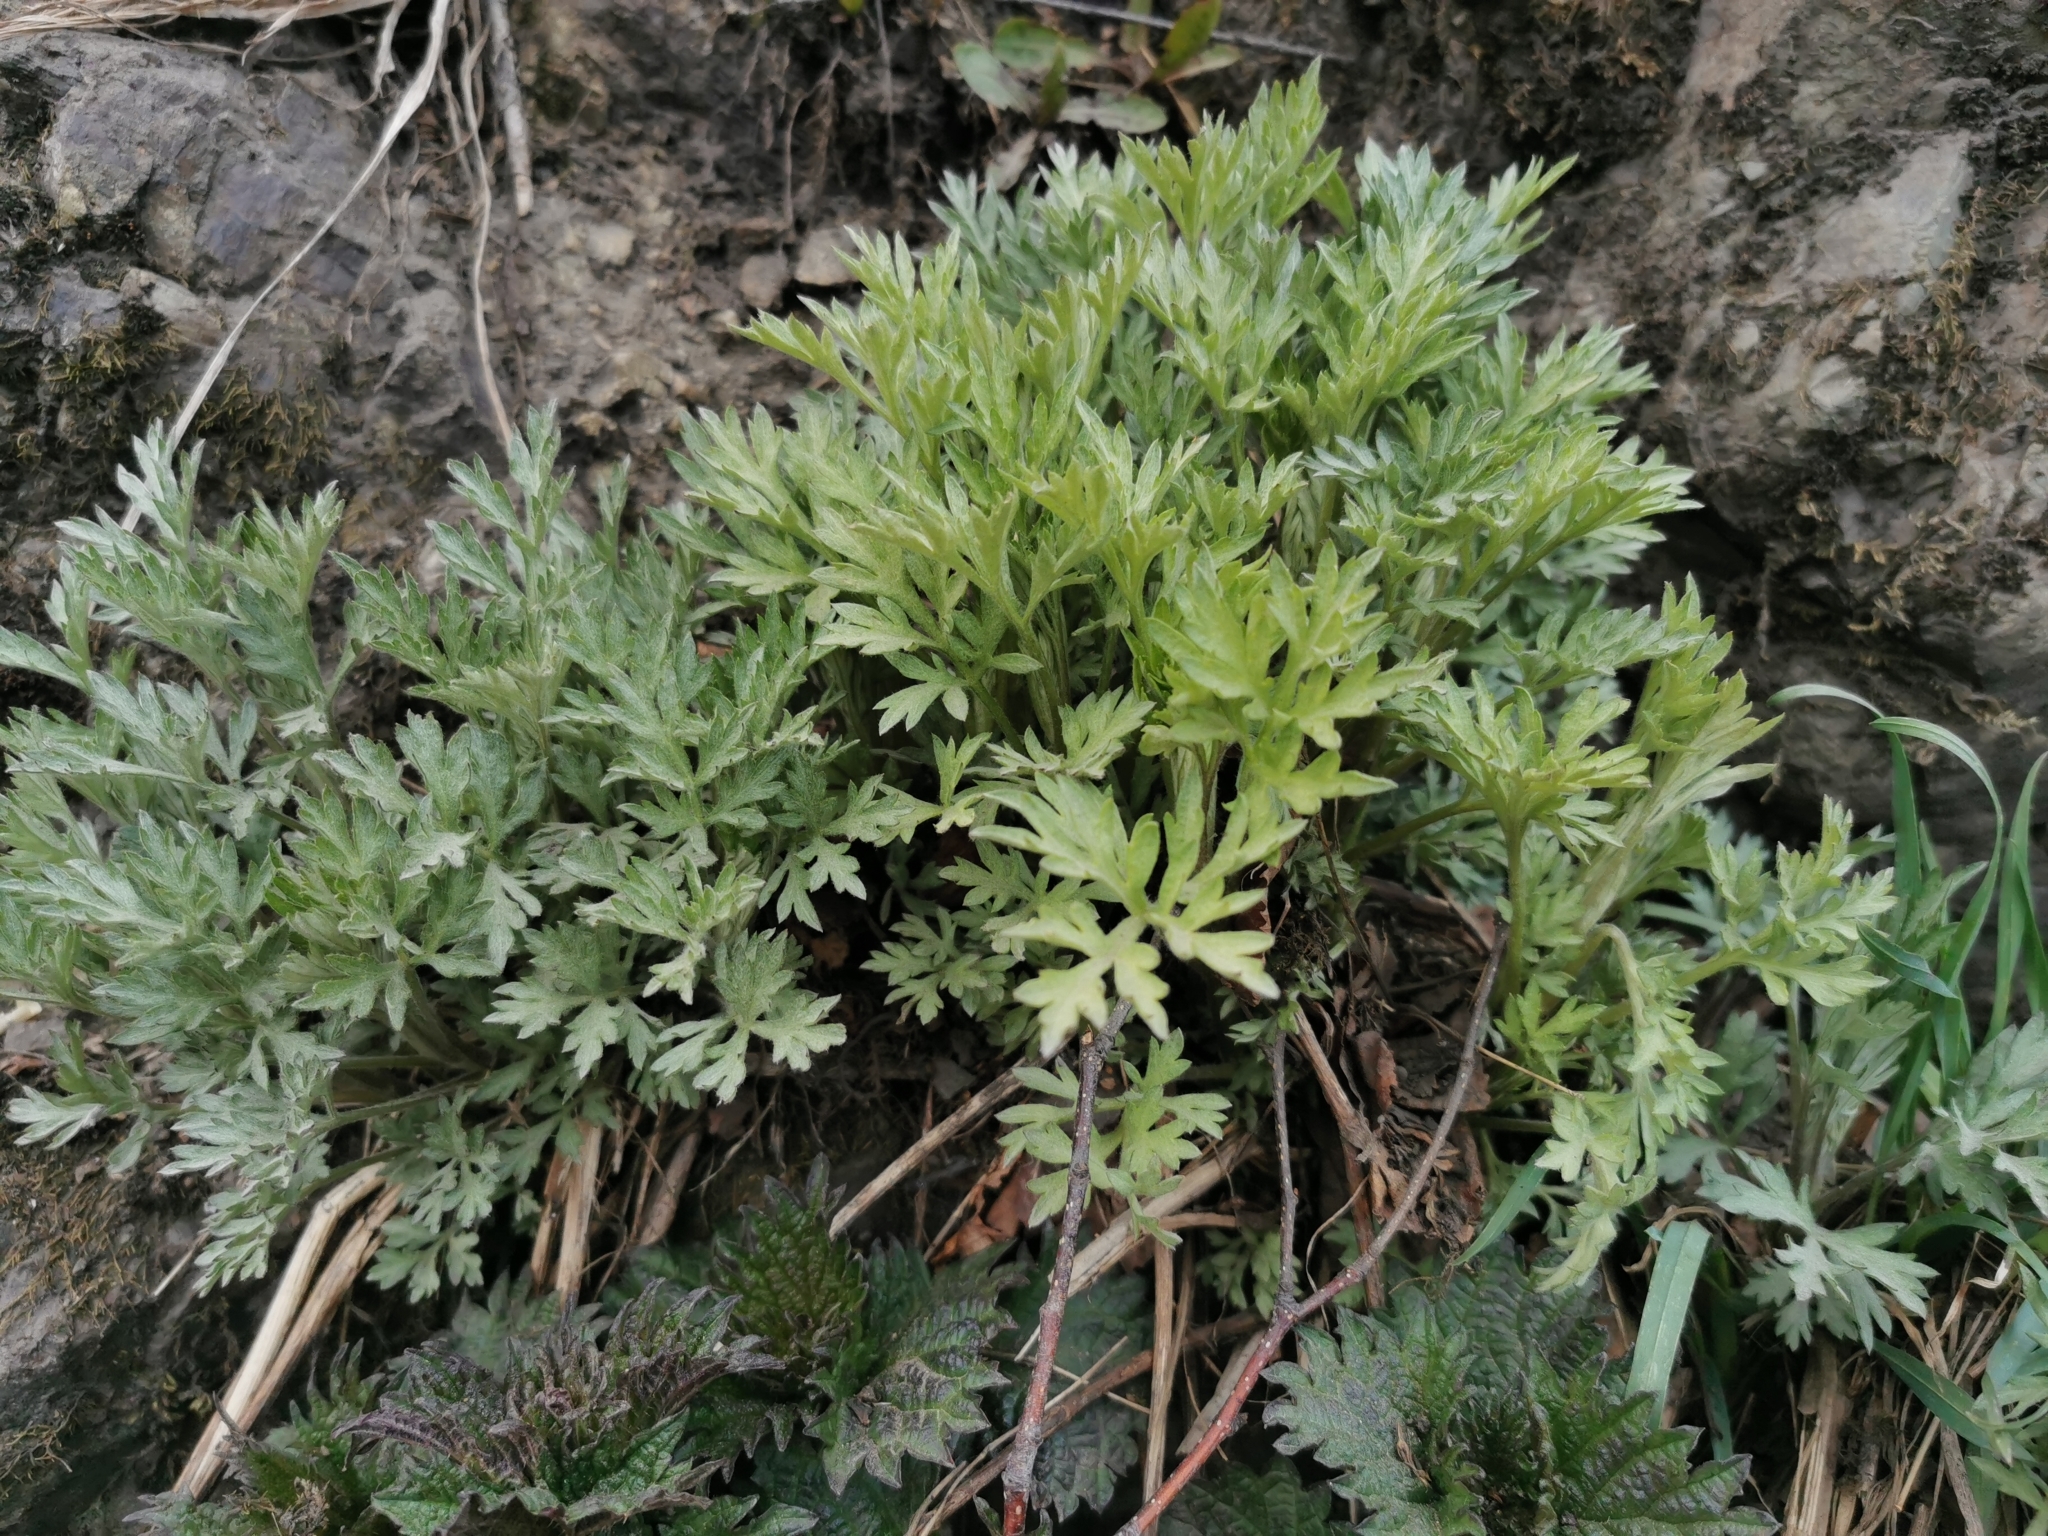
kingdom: Plantae
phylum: Tracheophyta
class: Magnoliopsida
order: Asterales
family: Asteraceae
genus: Artemisia
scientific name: Artemisia vulgaris
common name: Mugwort
